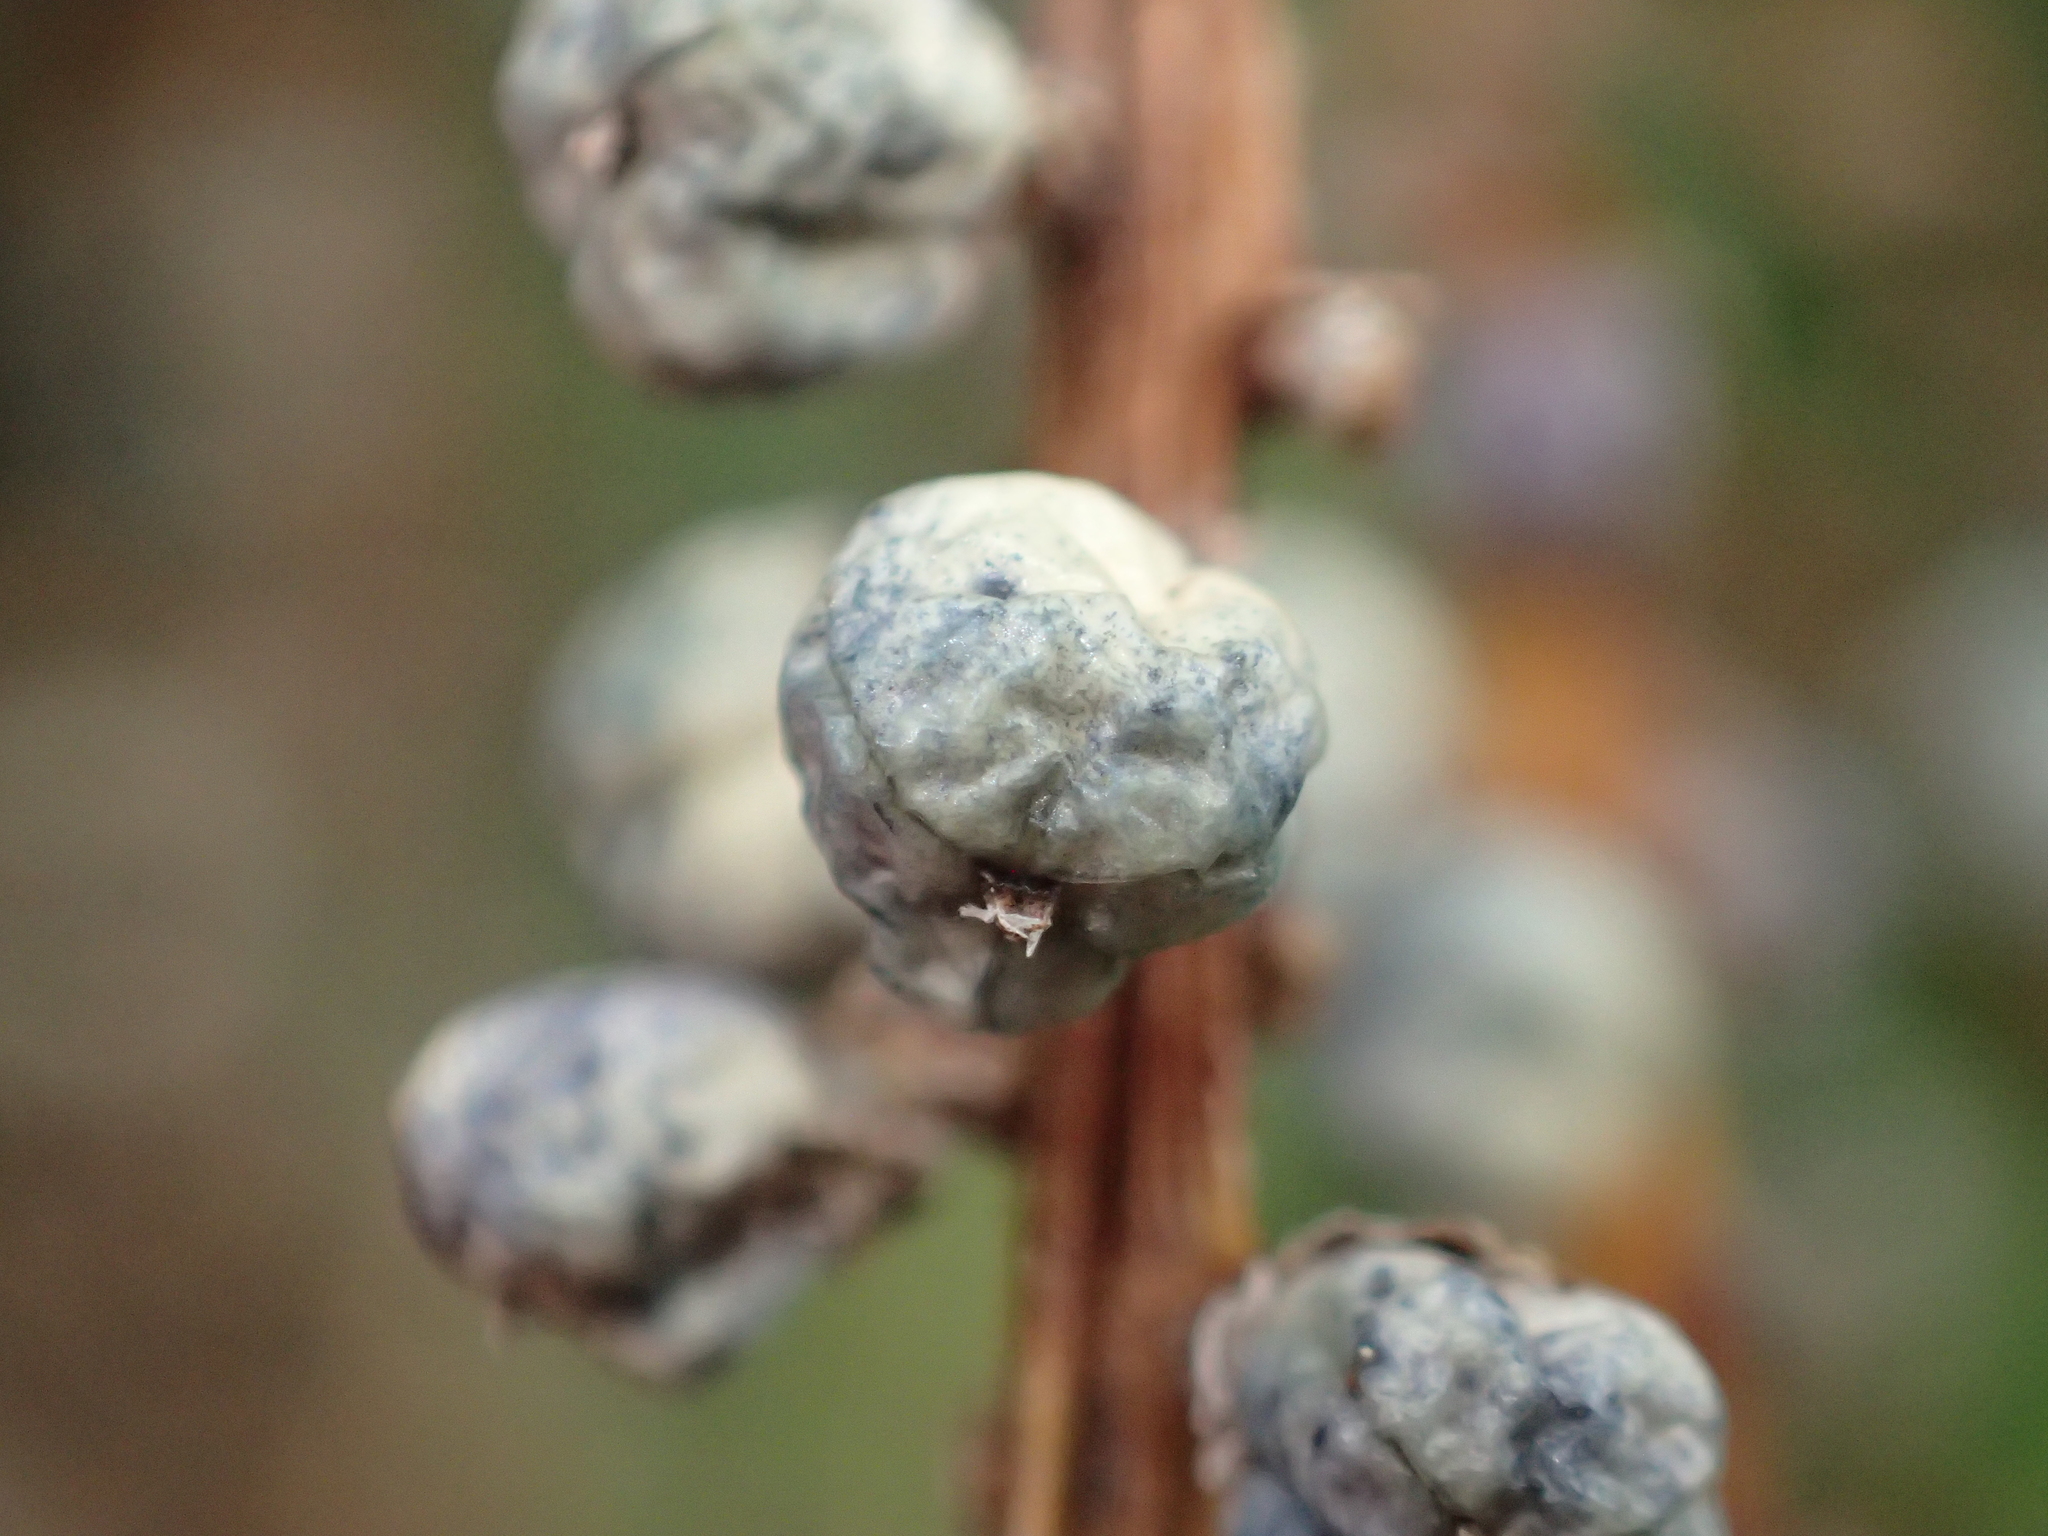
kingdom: Plantae
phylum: Tracheophyta
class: Liliopsida
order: Asparagales
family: Asparagaceae
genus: Cordyline
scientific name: Cordyline australis
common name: Cabbage-palm
